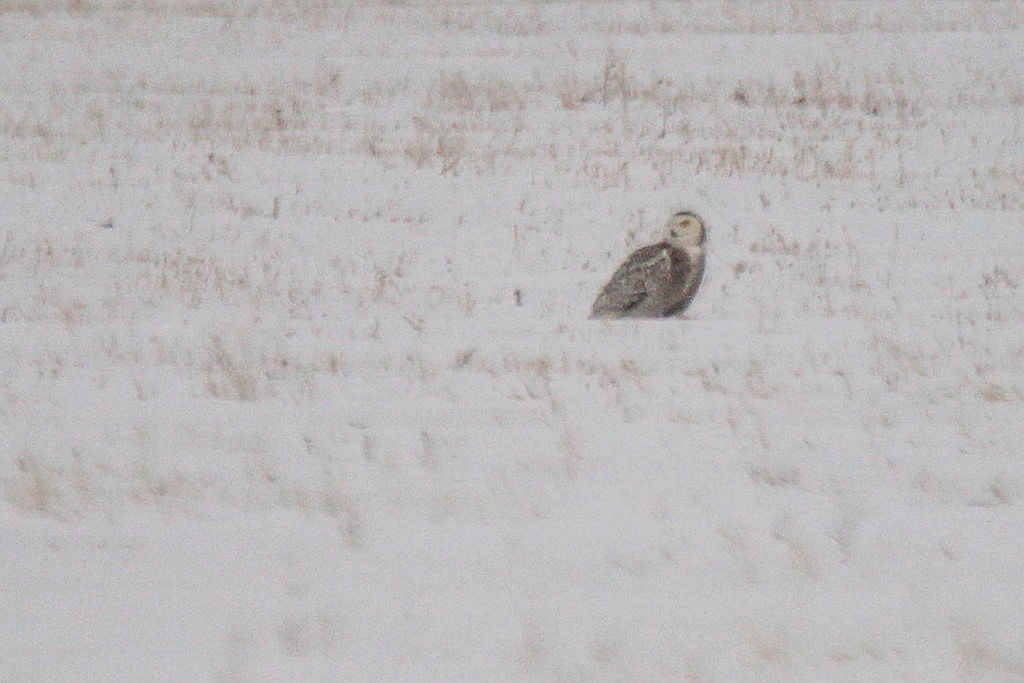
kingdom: Animalia
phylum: Chordata
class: Aves
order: Strigiformes
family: Strigidae
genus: Bubo
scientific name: Bubo scandiacus
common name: Snowy owl
